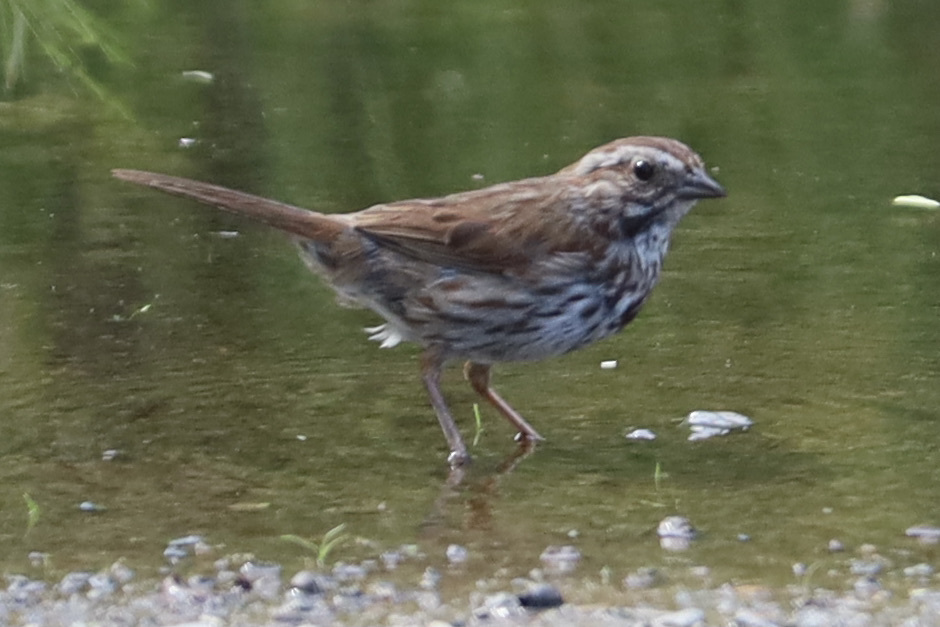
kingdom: Animalia
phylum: Chordata
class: Aves
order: Passeriformes
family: Passerellidae
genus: Melospiza
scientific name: Melospiza melodia
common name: Song sparrow
